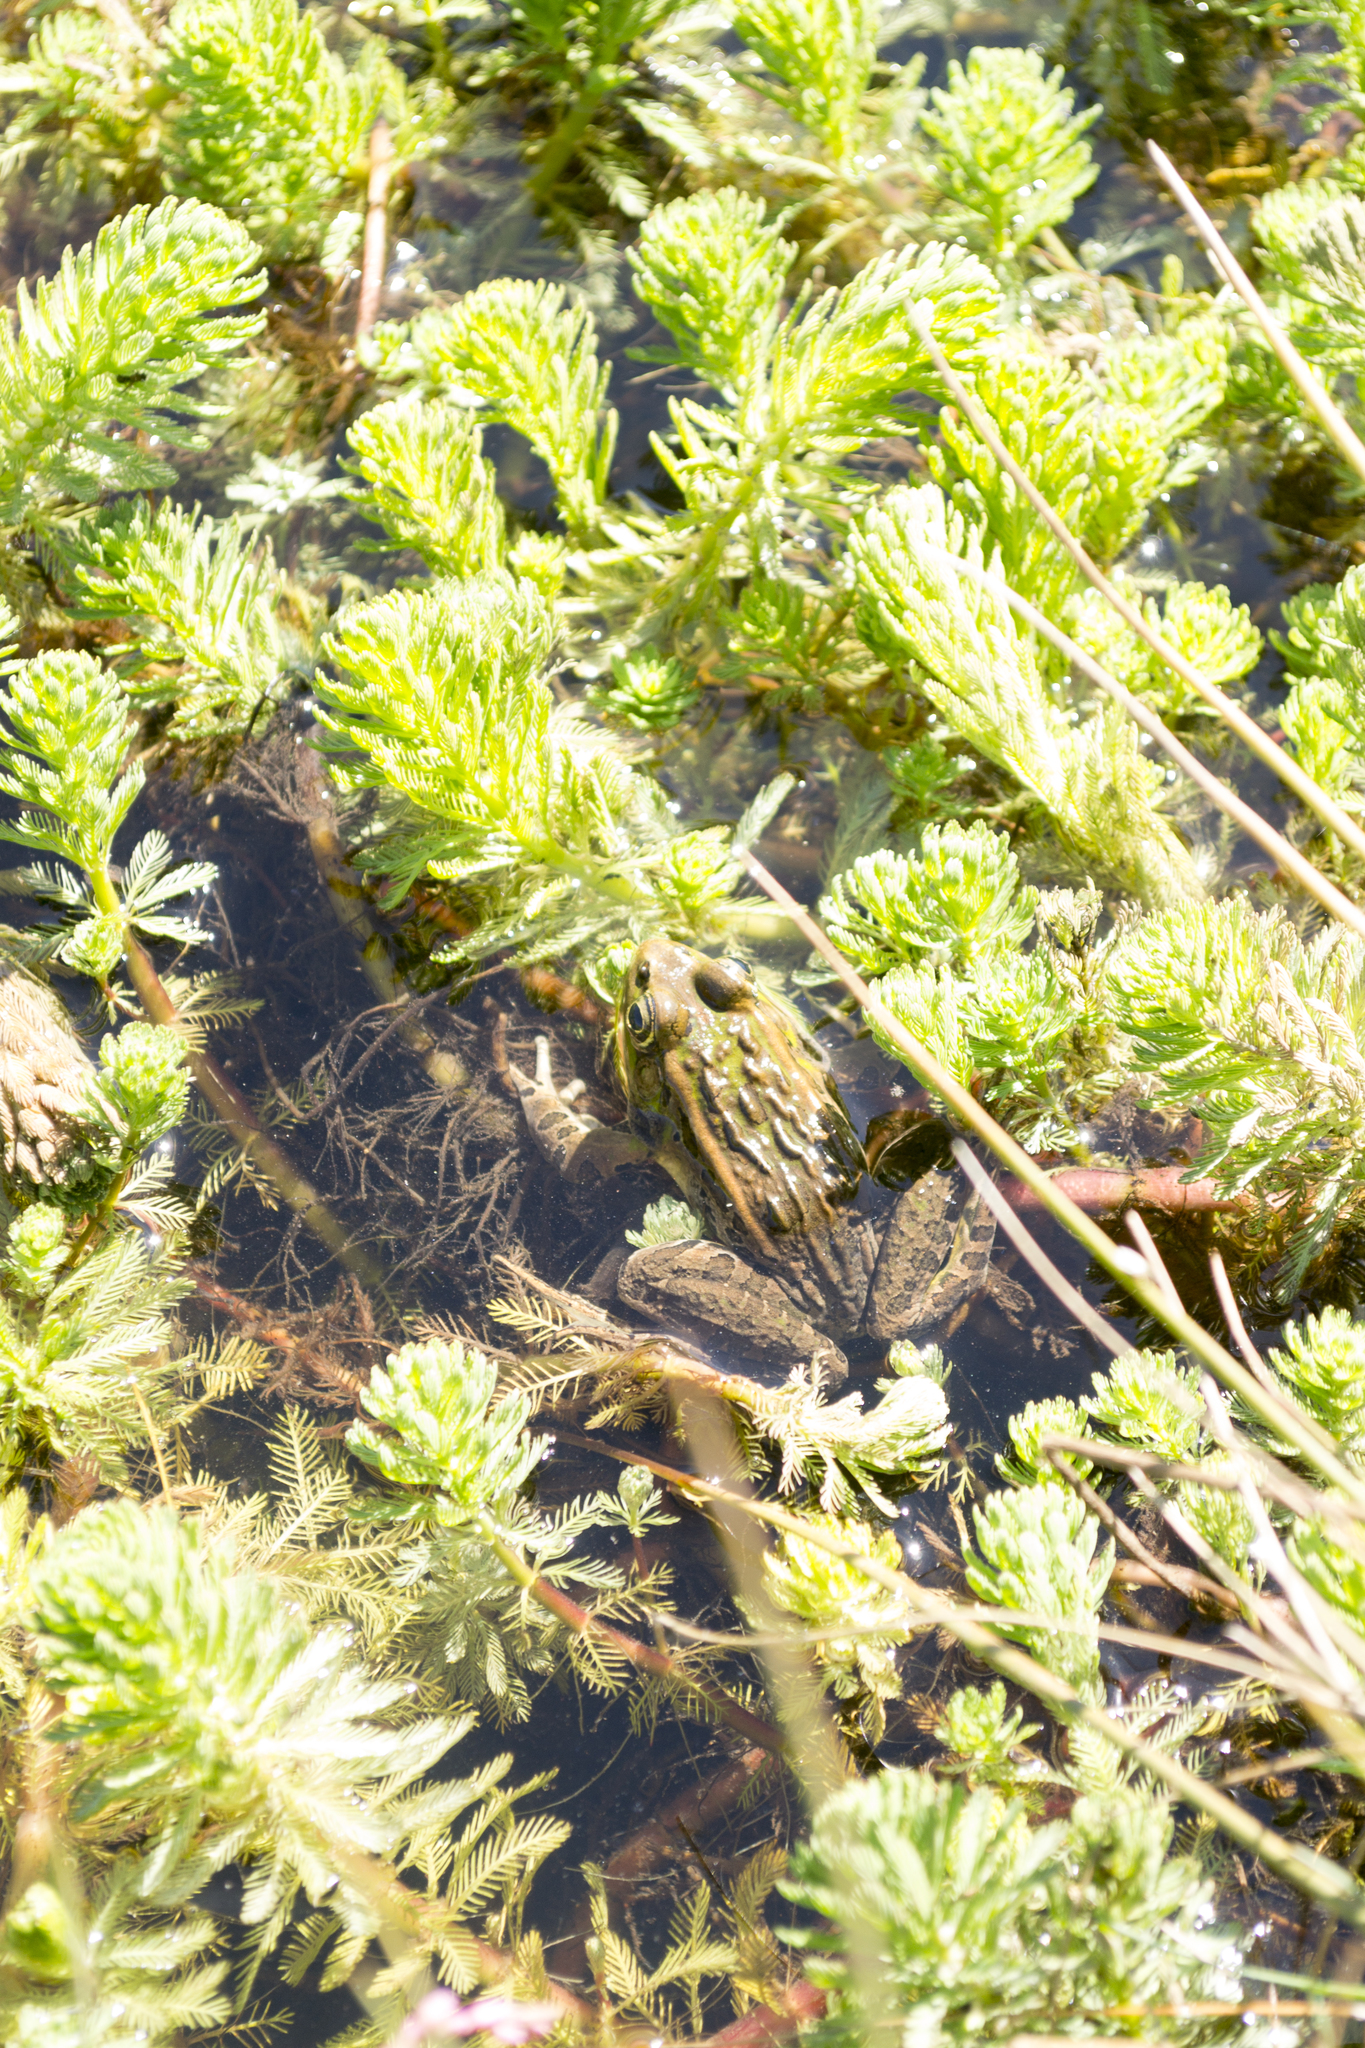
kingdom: Animalia
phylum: Chordata
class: Amphibia
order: Anura
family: Ranidae
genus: Lithobates
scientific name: Lithobates neovolcanicus
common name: Transverse volcanic leopard frog
